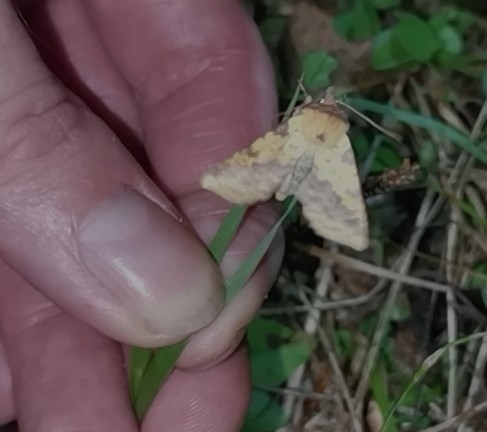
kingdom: Animalia
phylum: Arthropoda
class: Insecta
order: Lepidoptera
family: Noctuidae
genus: Xanthia
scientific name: Xanthia togata
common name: Pink-barred sallow
